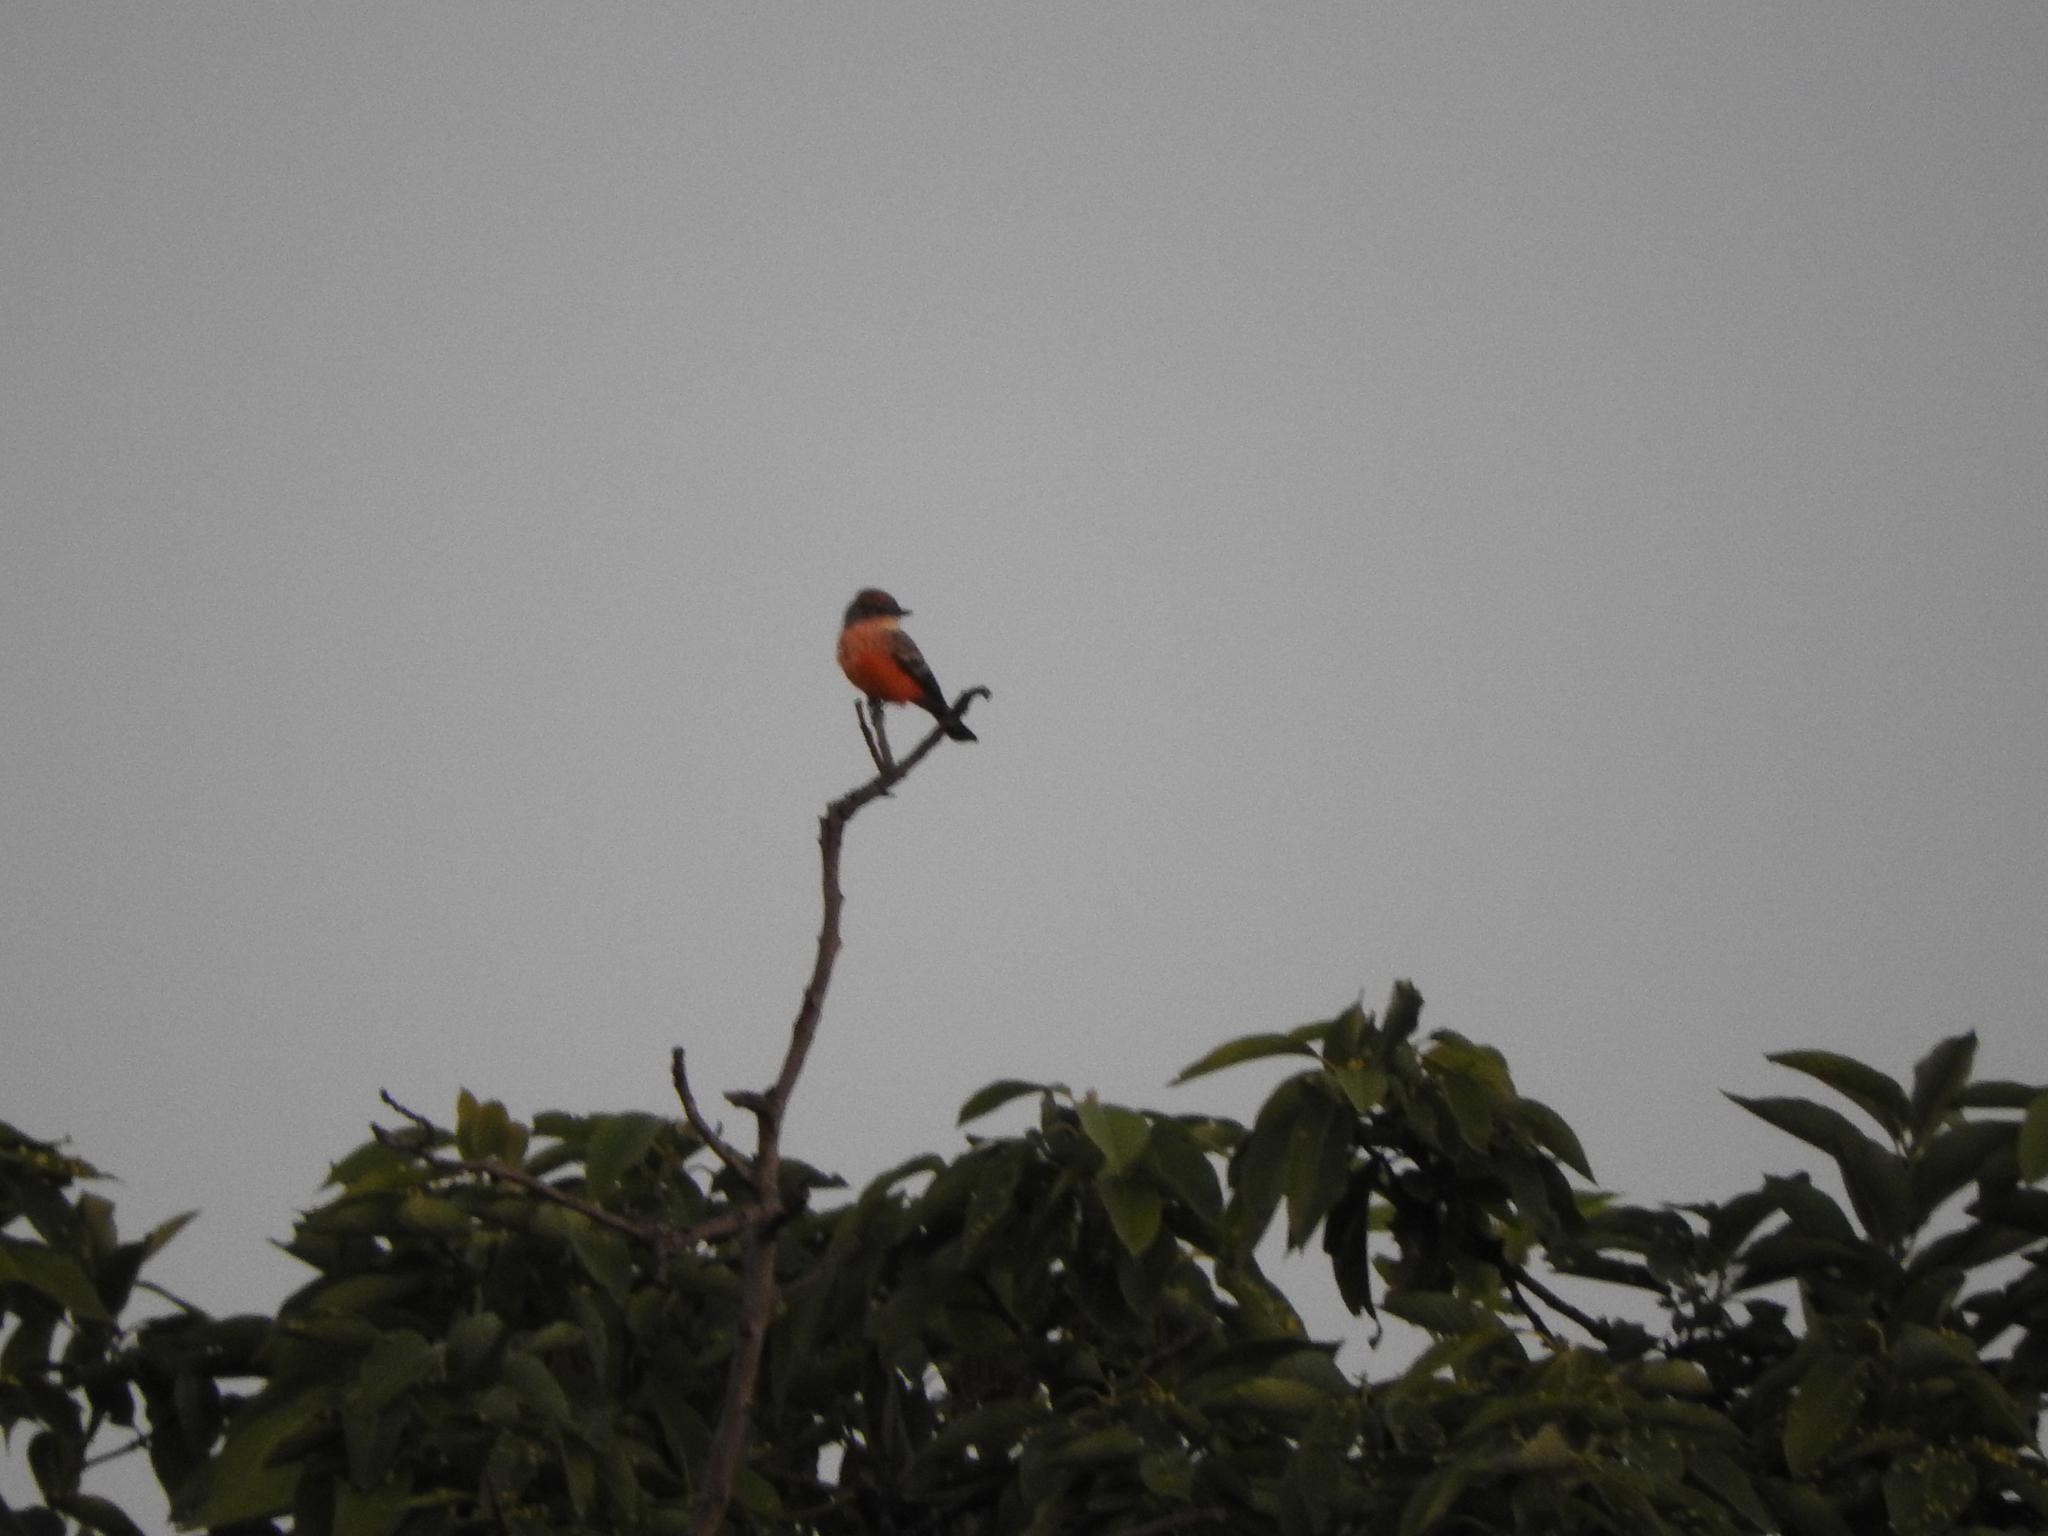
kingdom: Animalia
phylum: Chordata
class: Aves
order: Passeriformes
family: Tyrannidae
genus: Pyrocephalus
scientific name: Pyrocephalus rubinus
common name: Vermilion flycatcher
